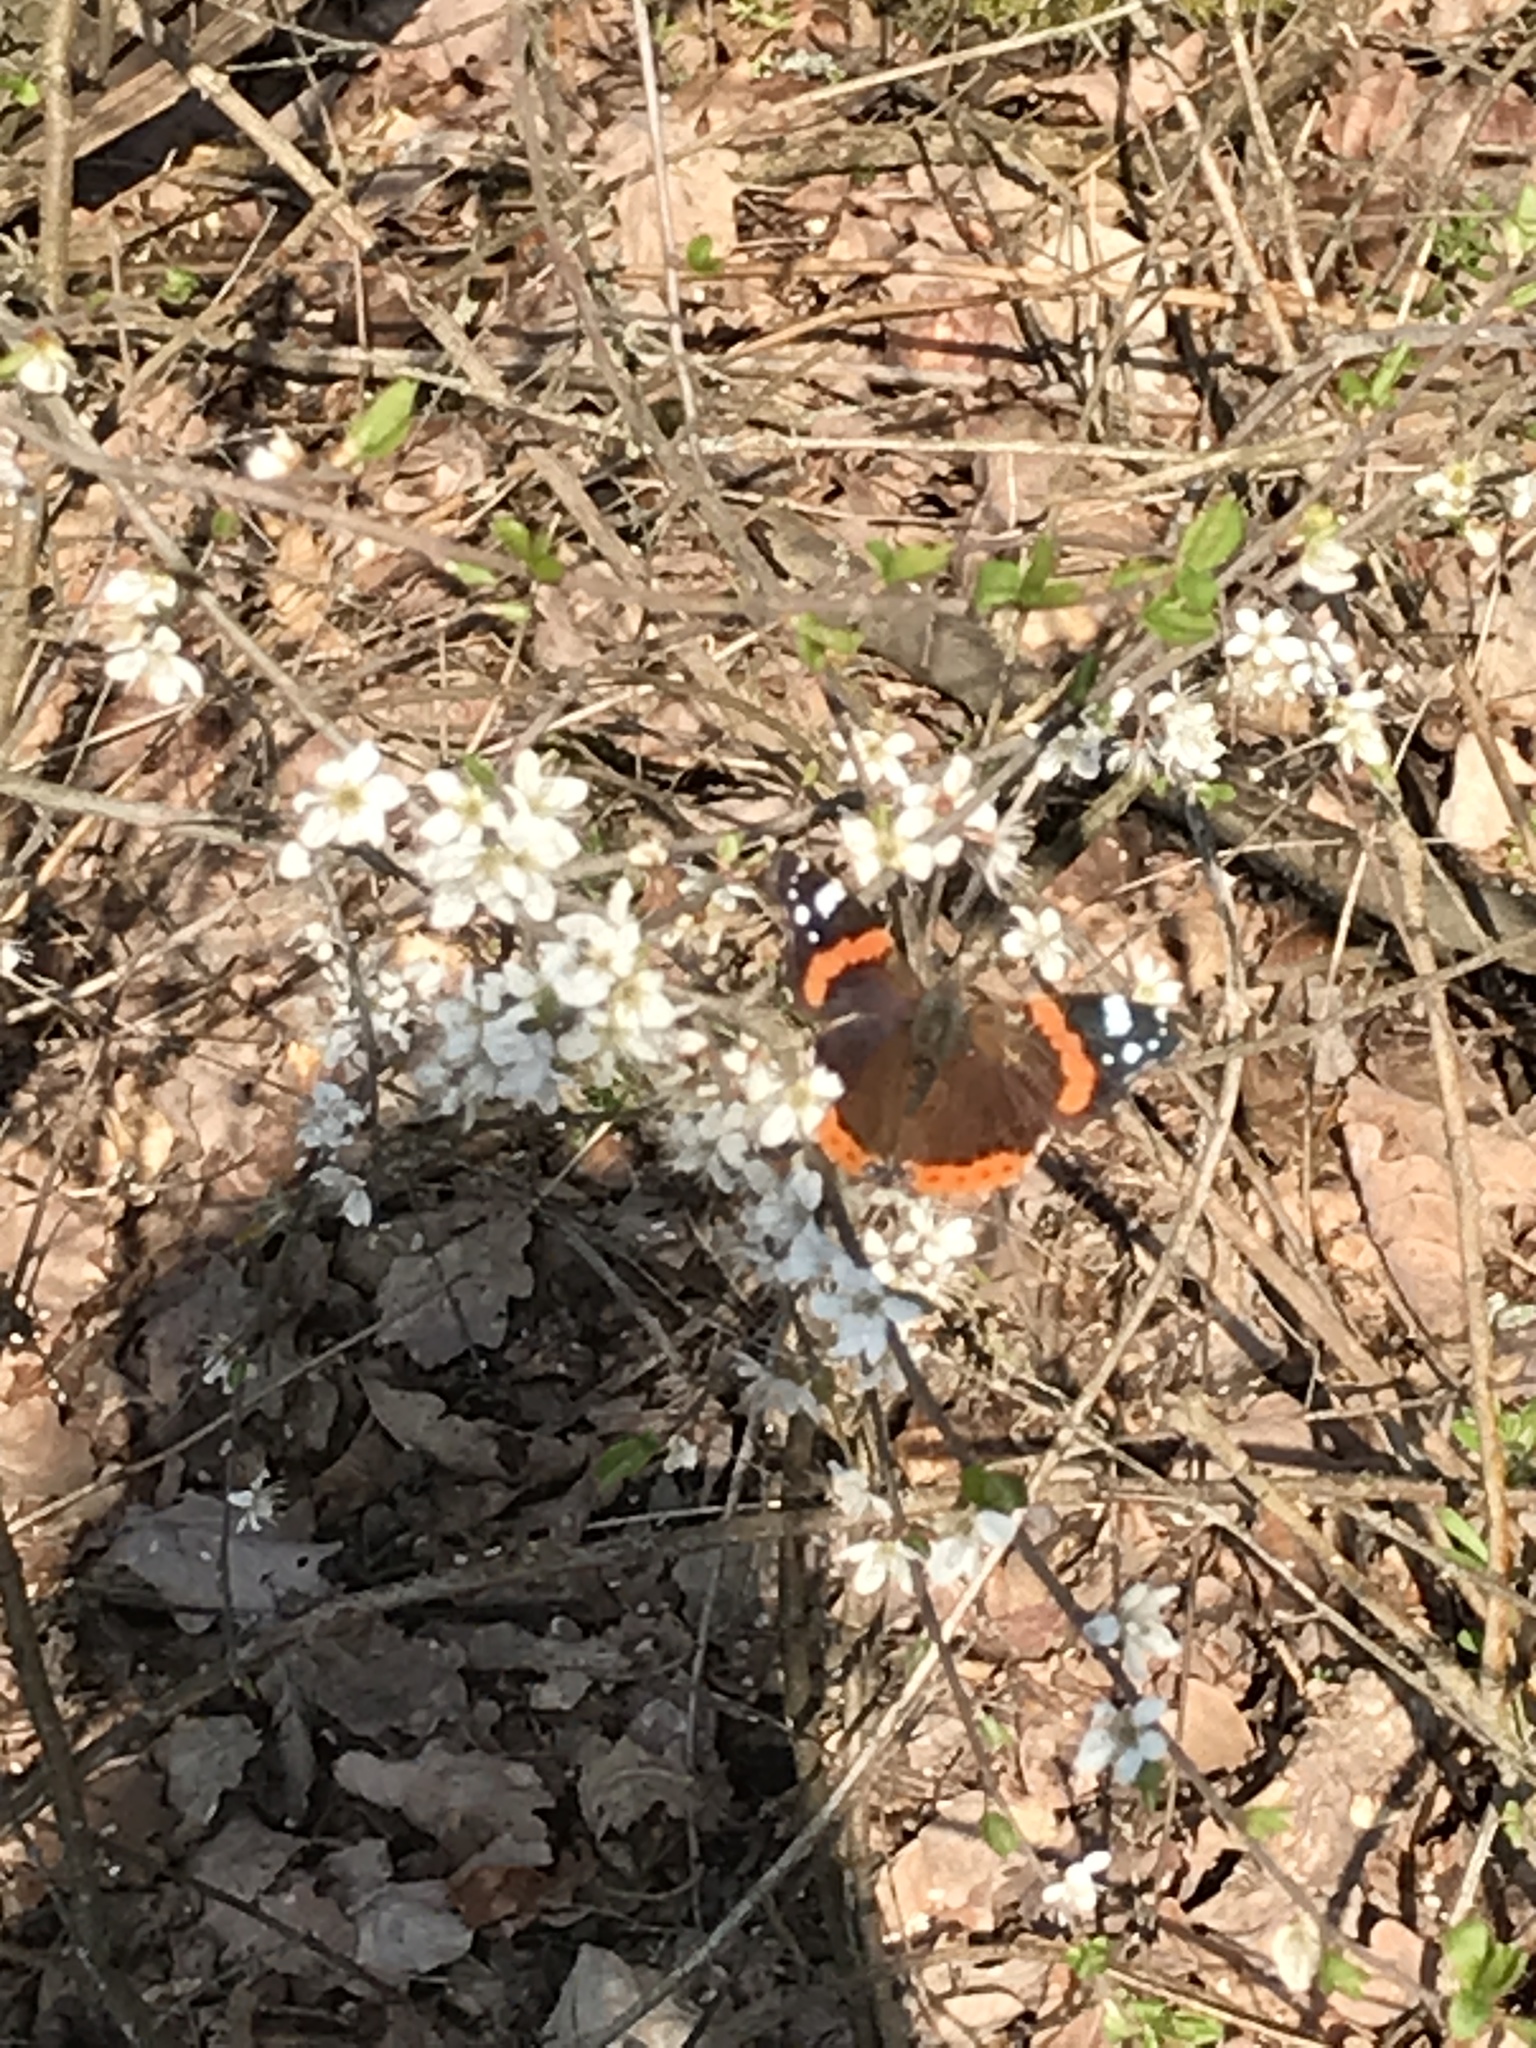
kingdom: Animalia
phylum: Arthropoda
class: Insecta
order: Lepidoptera
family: Nymphalidae
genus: Vanessa
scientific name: Vanessa atalanta
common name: Red admiral
